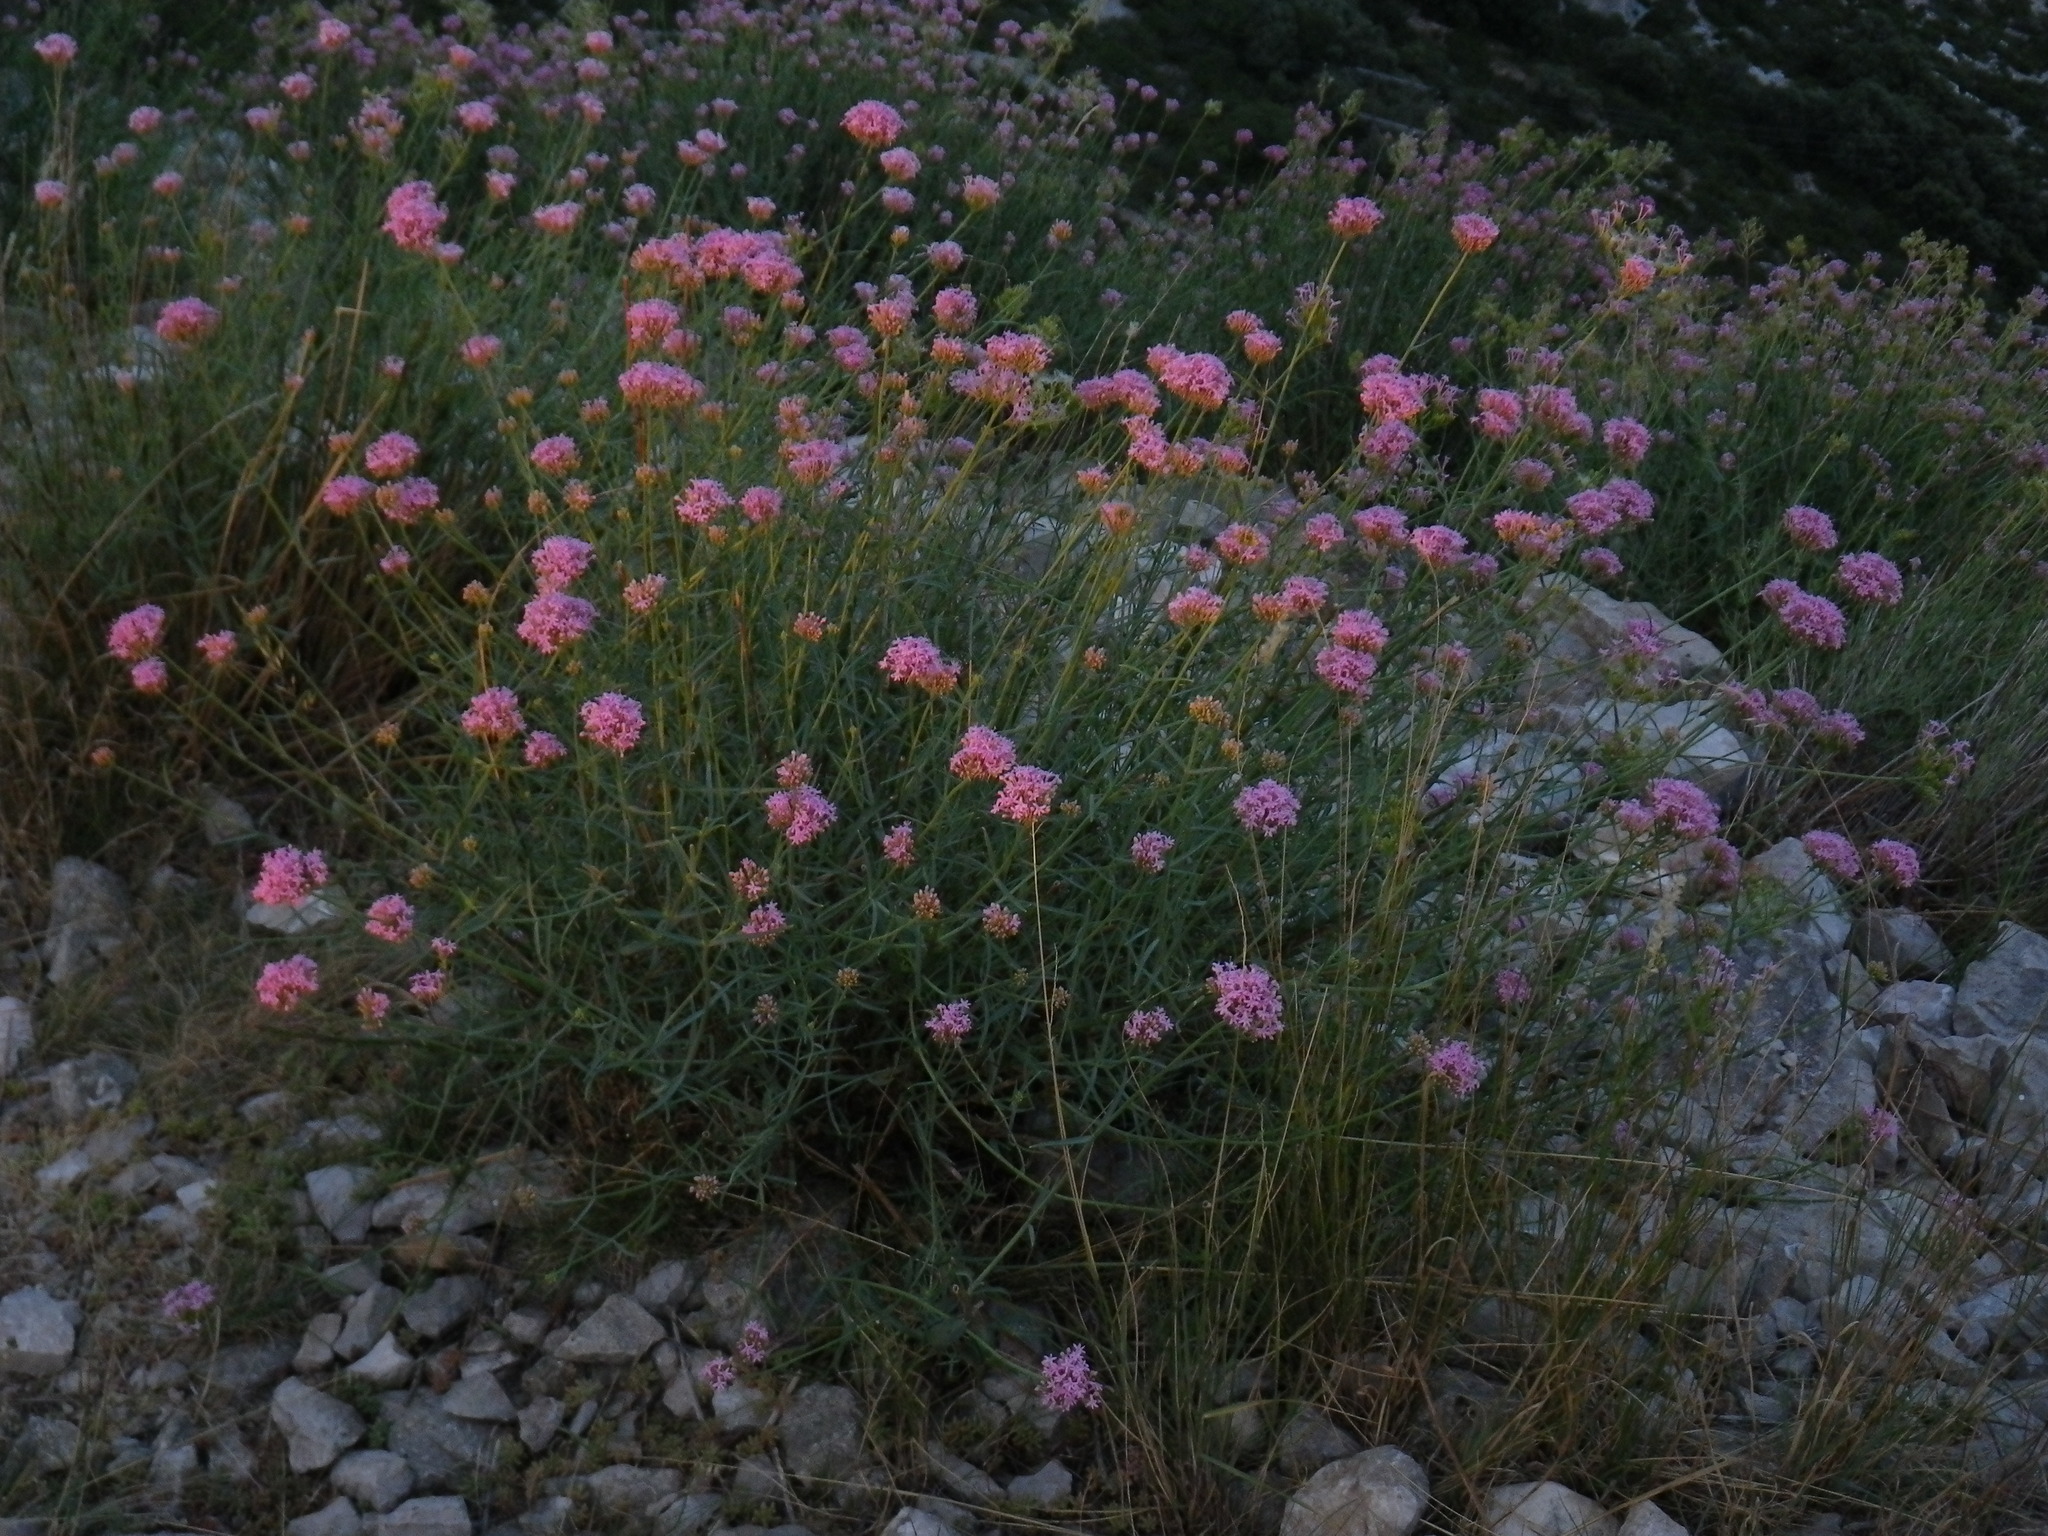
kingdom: Plantae
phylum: Tracheophyta
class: Magnoliopsida
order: Dipsacales
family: Caprifoliaceae
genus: Centranthus
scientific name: Centranthus lecoqii
